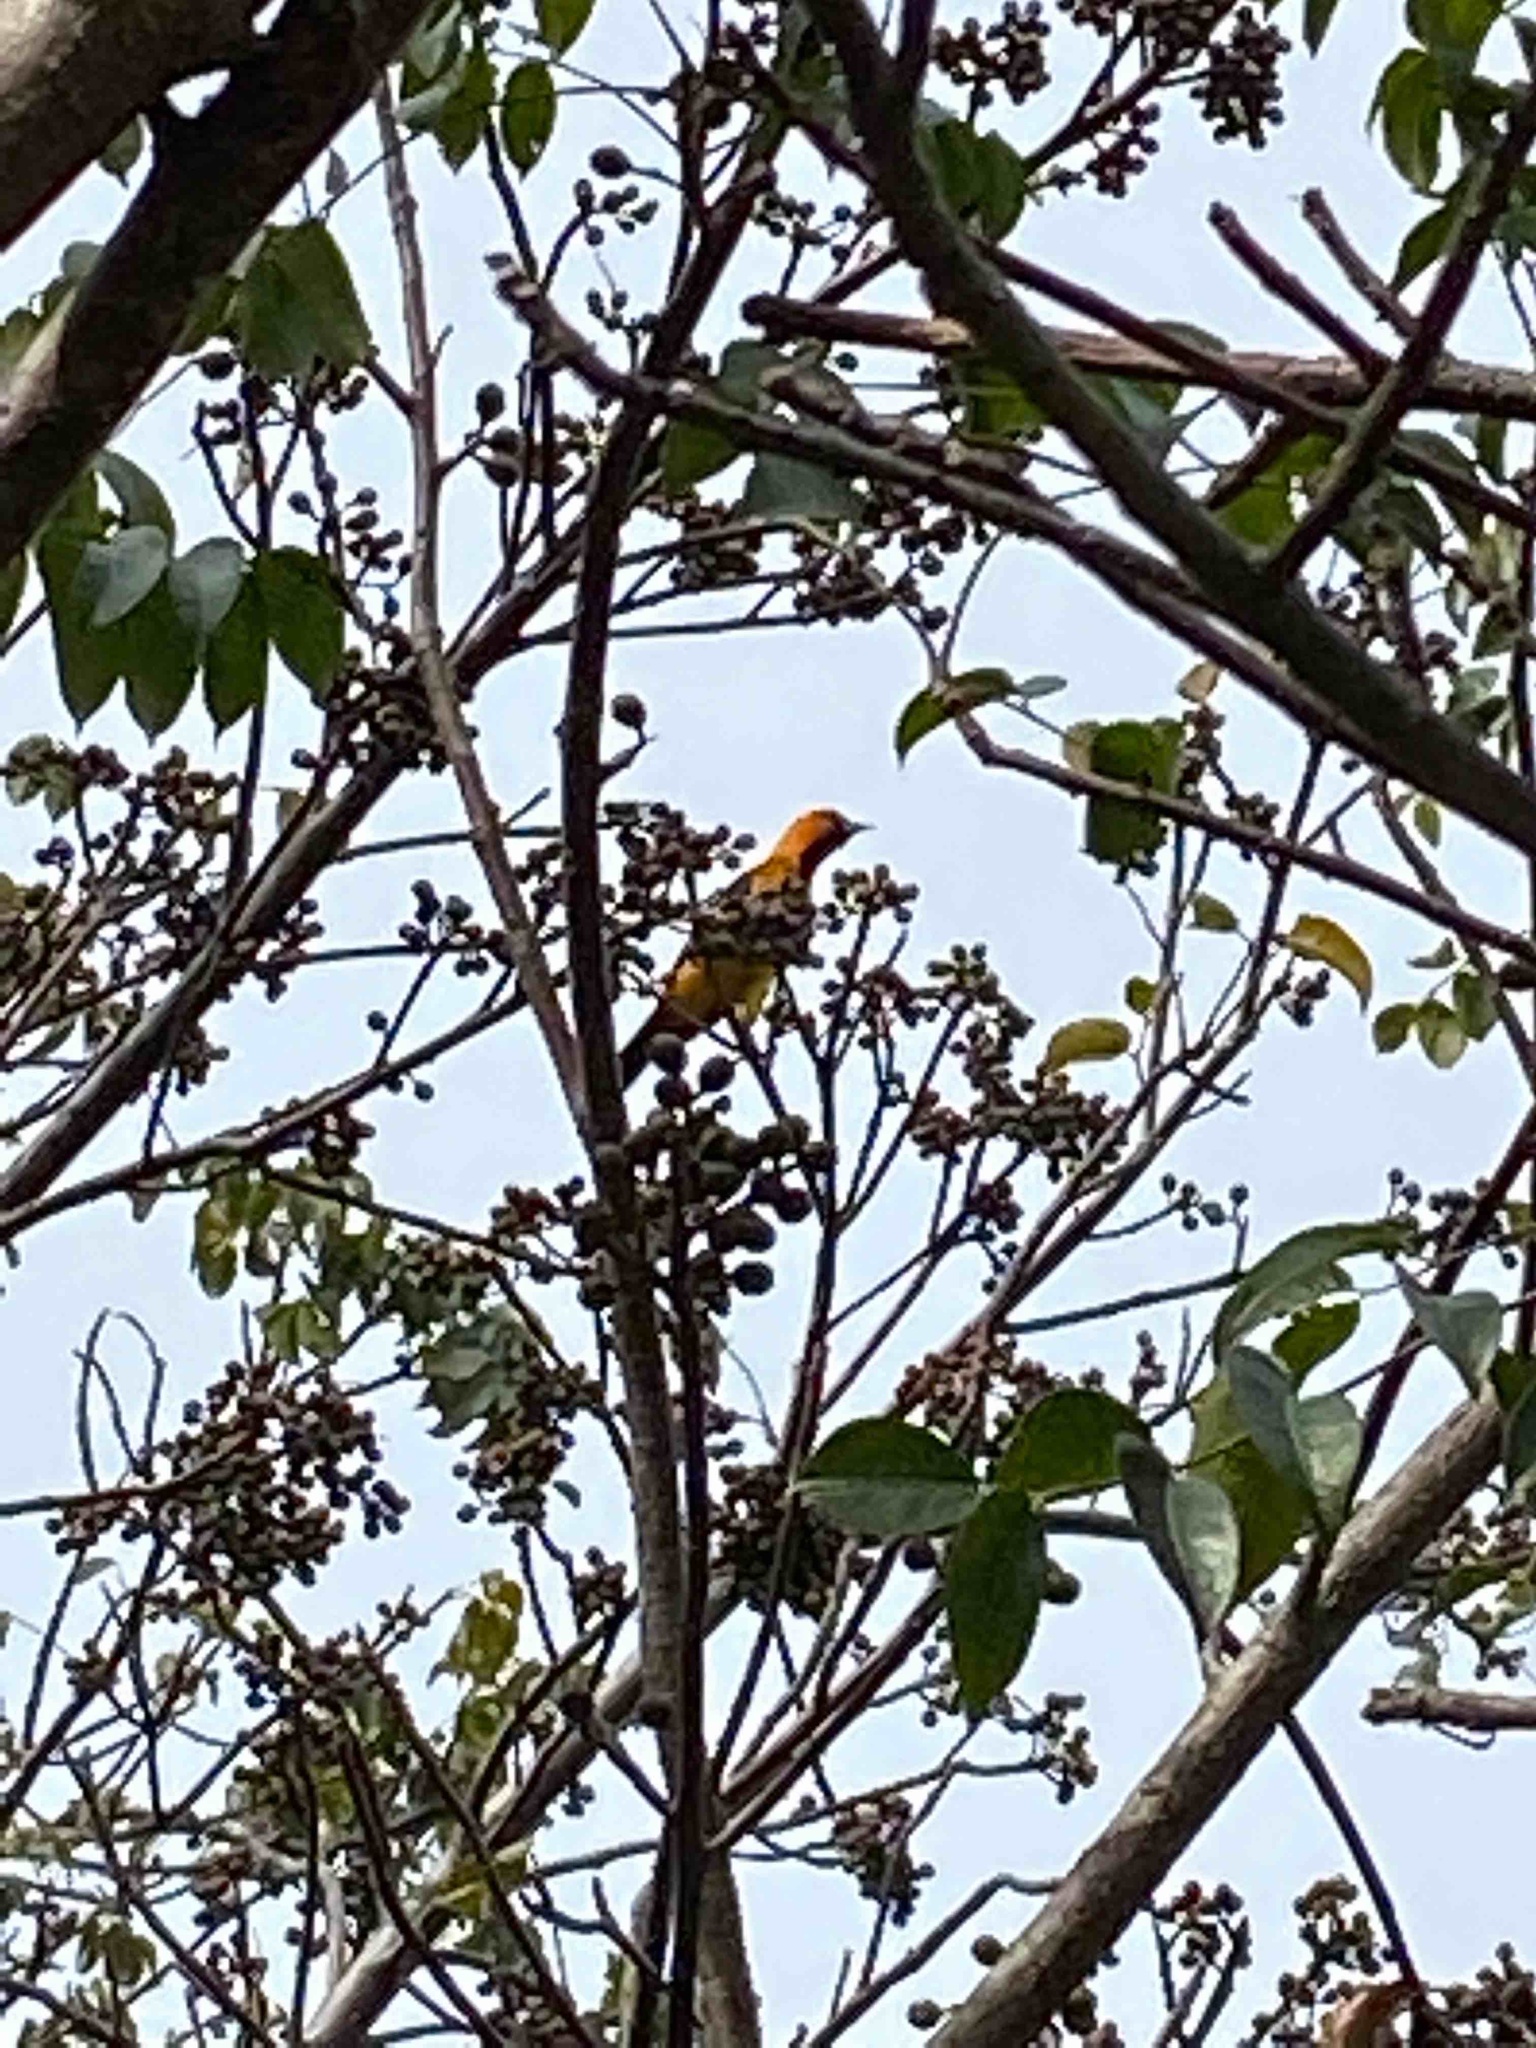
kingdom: Animalia
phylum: Chordata
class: Aves
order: Passeriformes
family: Icteridae
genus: Icterus
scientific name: Icterus pectoralis
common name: Spot-breasted oriole
